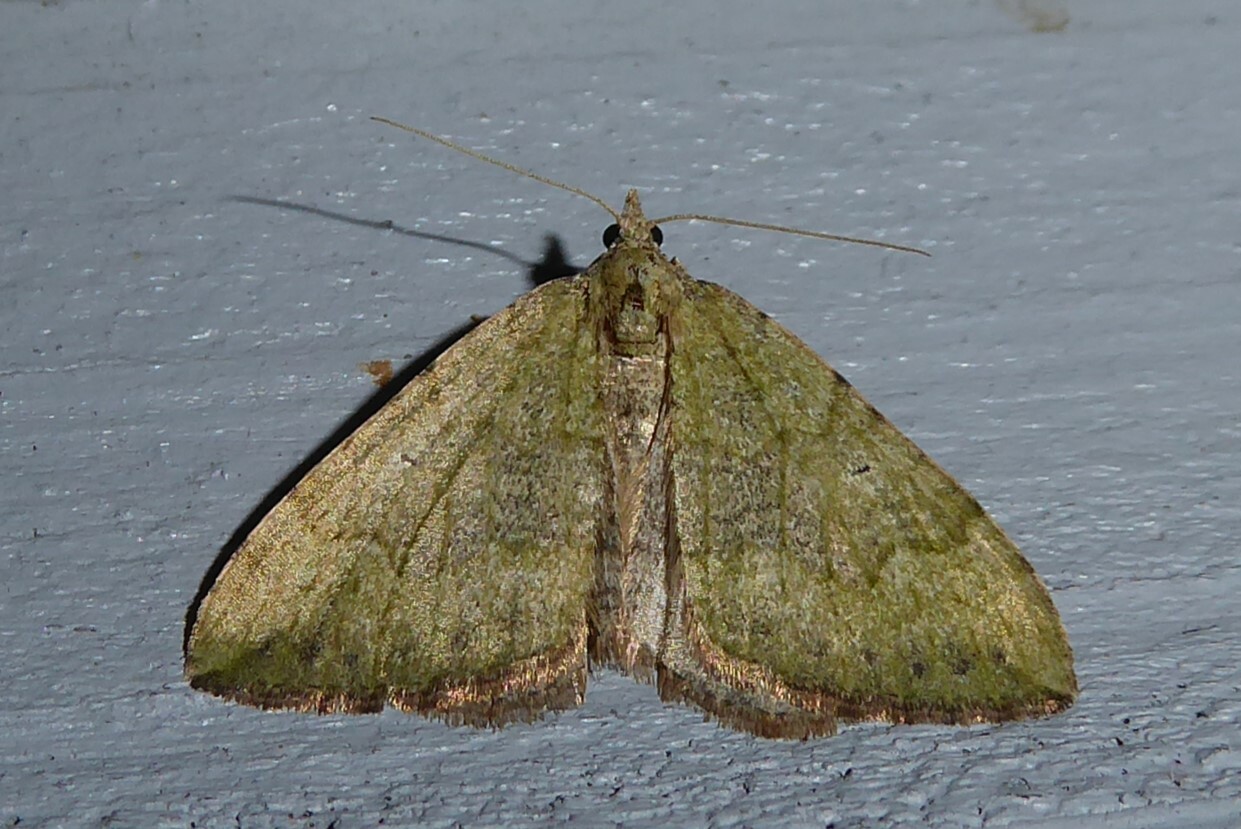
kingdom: Animalia
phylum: Arthropoda
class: Insecta
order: Lepidoptera
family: Geometridae
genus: Epyaxa
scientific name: Epyaxa rosearia
